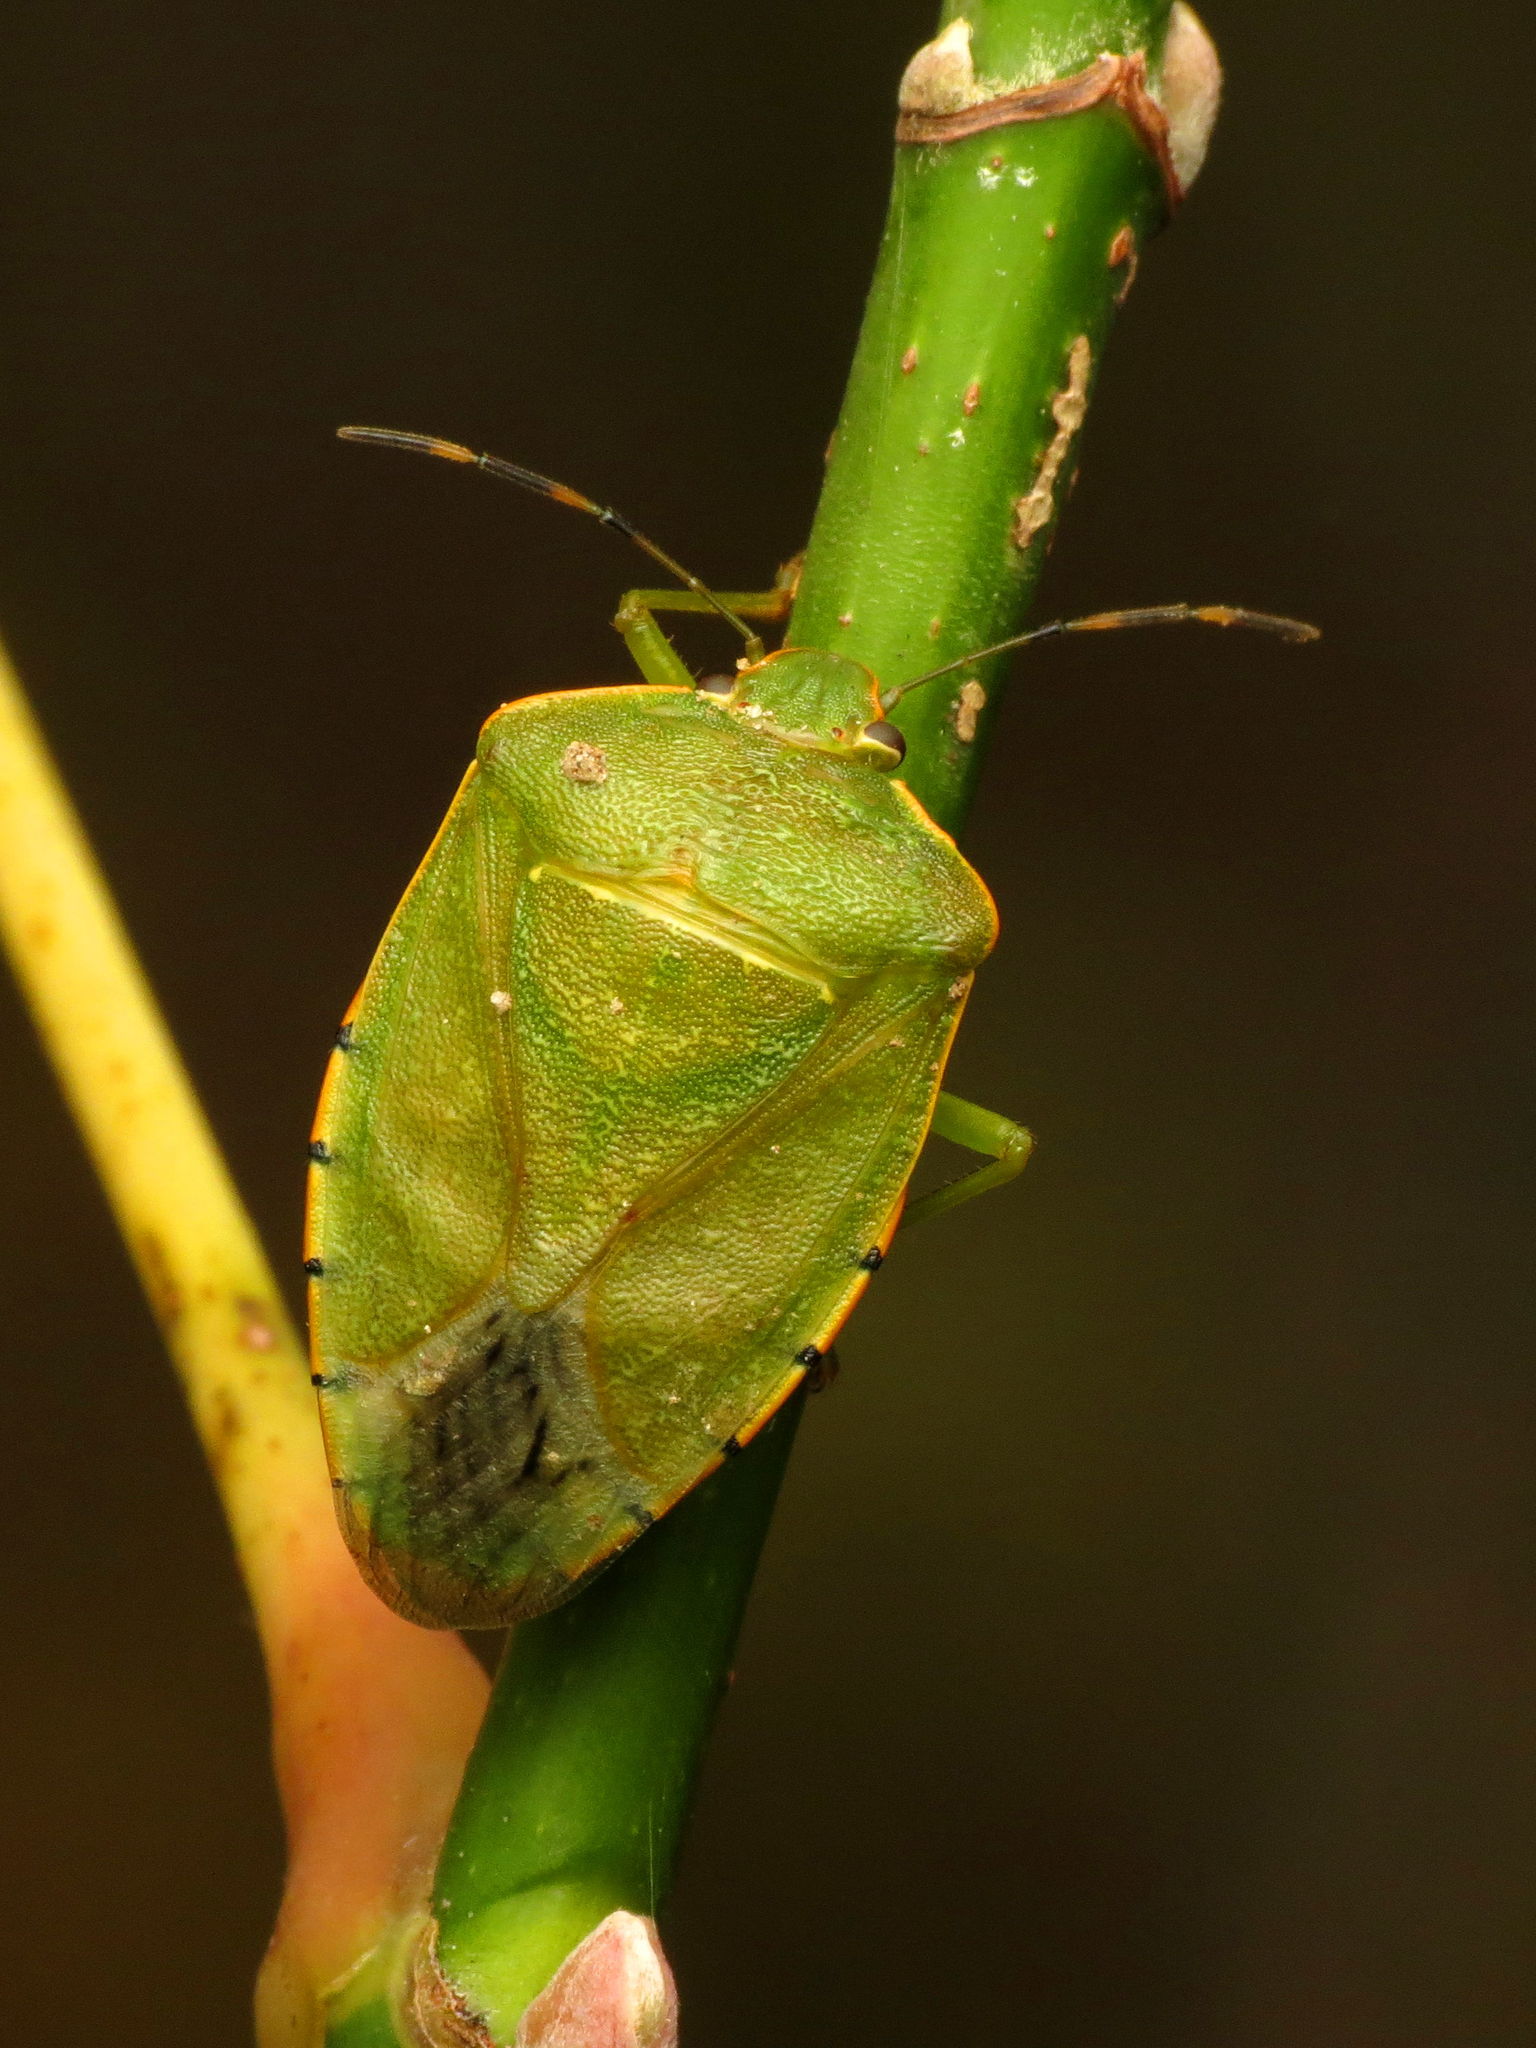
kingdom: Animalia
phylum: Arthropoda
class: Insecta
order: Hemiptera
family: Pentatomidae
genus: Chinavia
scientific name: Chinavia hilaris
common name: Green stink bug
